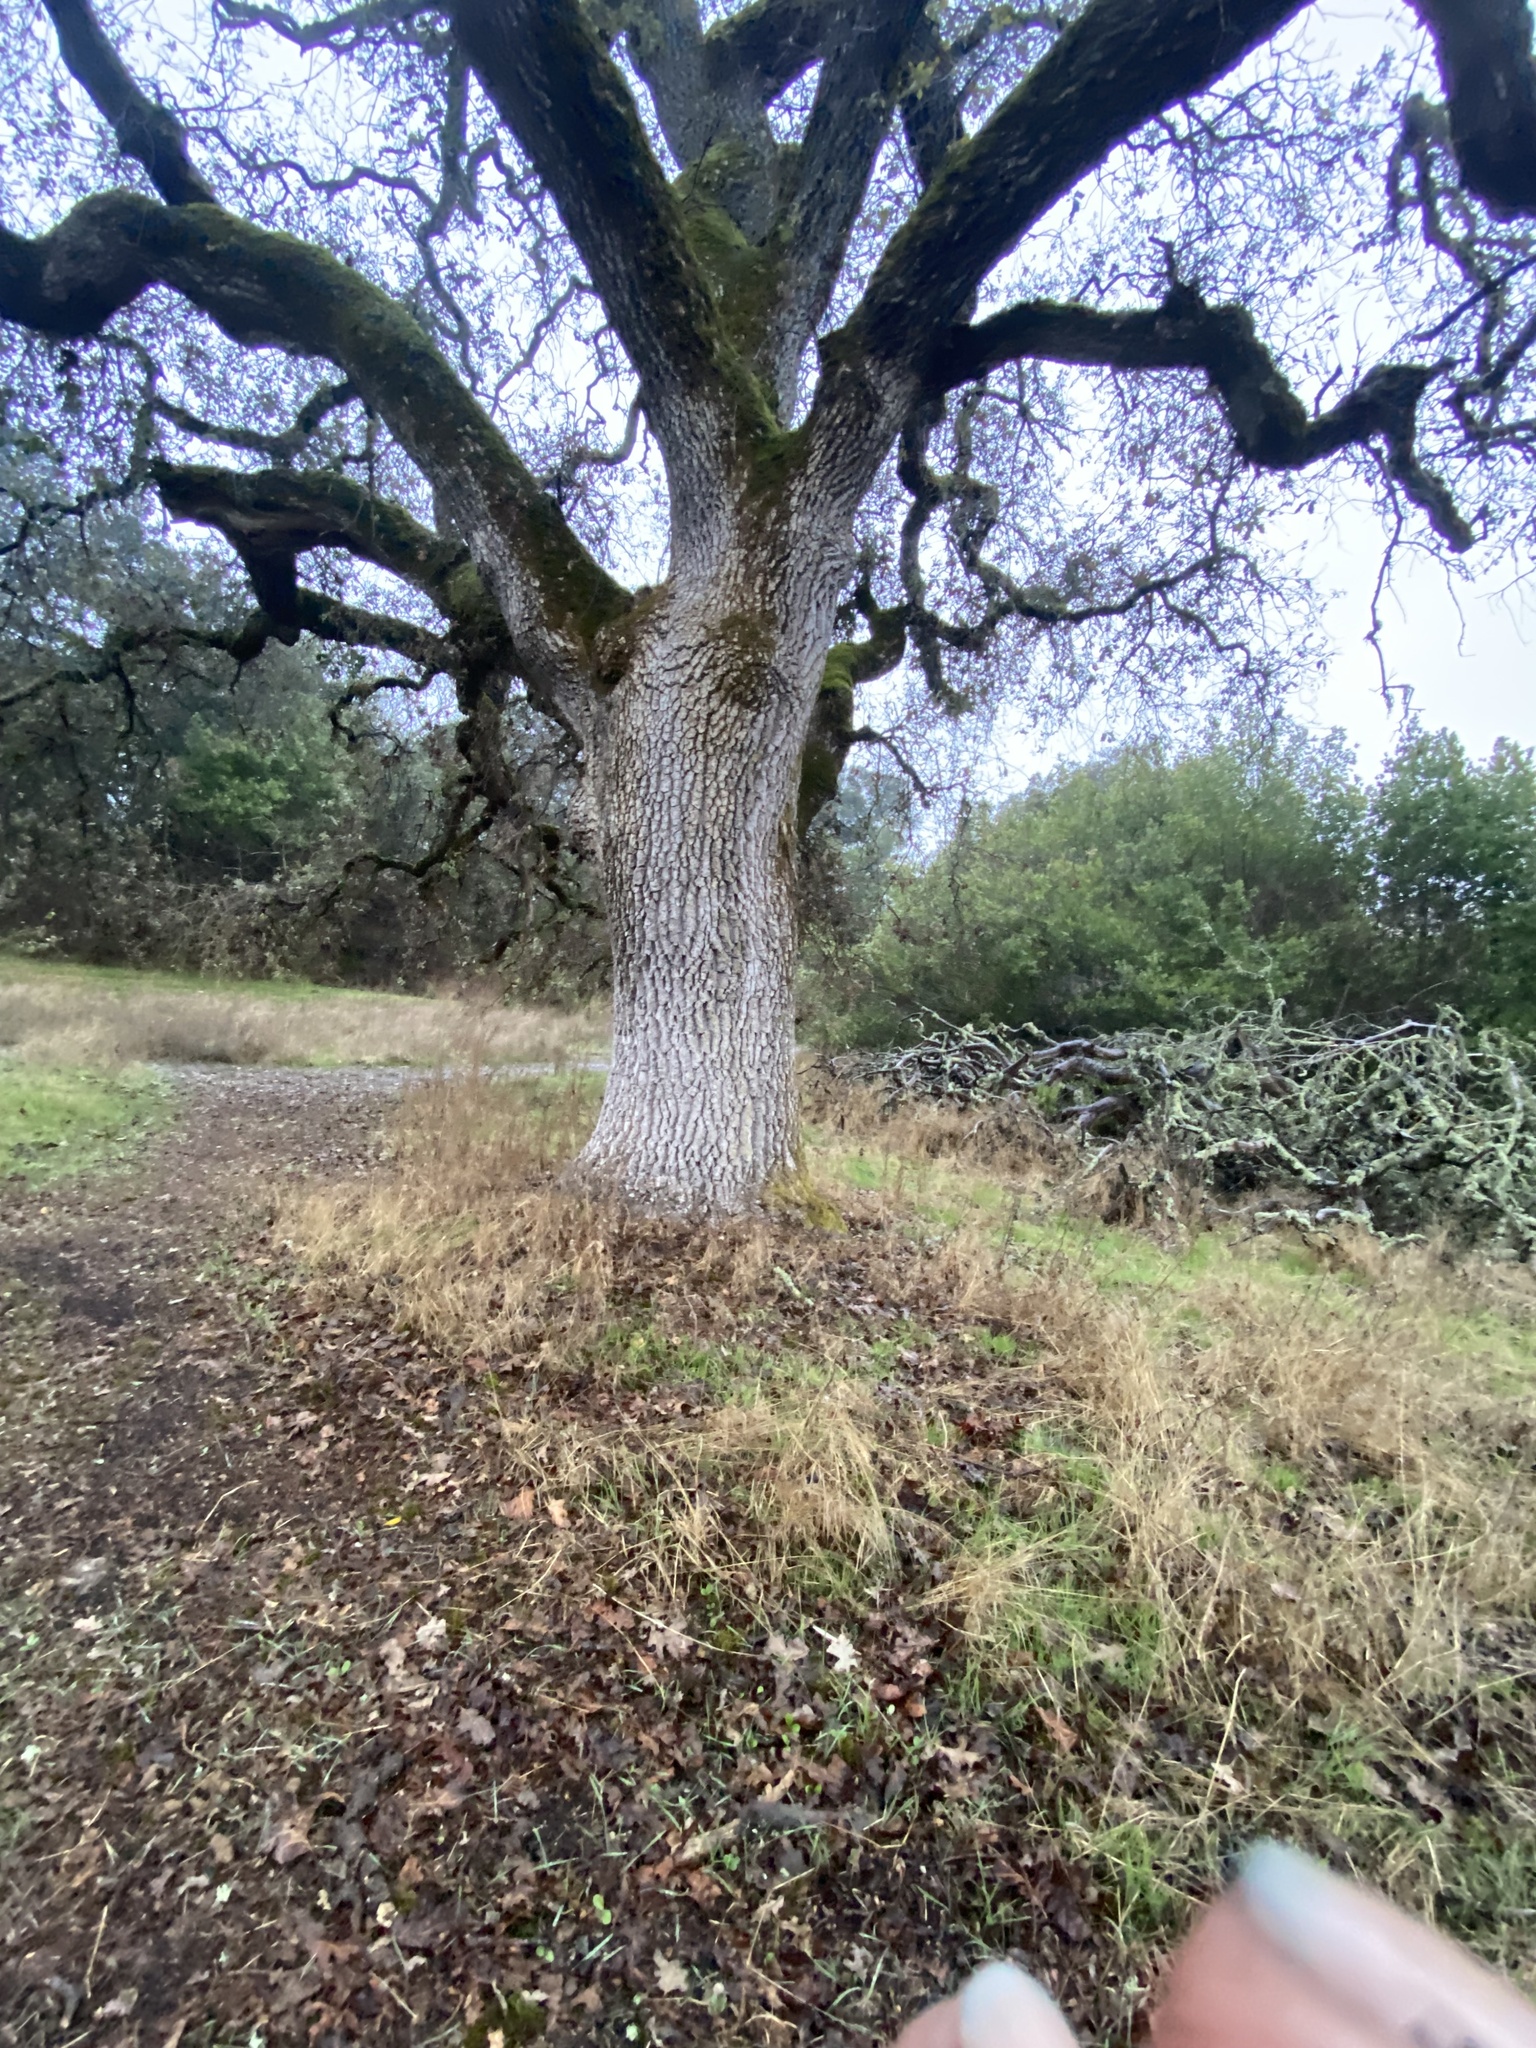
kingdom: Plantae
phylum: Tracheophyta
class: Magnoliopsida
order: Fagales
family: Fagaceae
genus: Quercus
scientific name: Quercus garryana
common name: Garry oak
